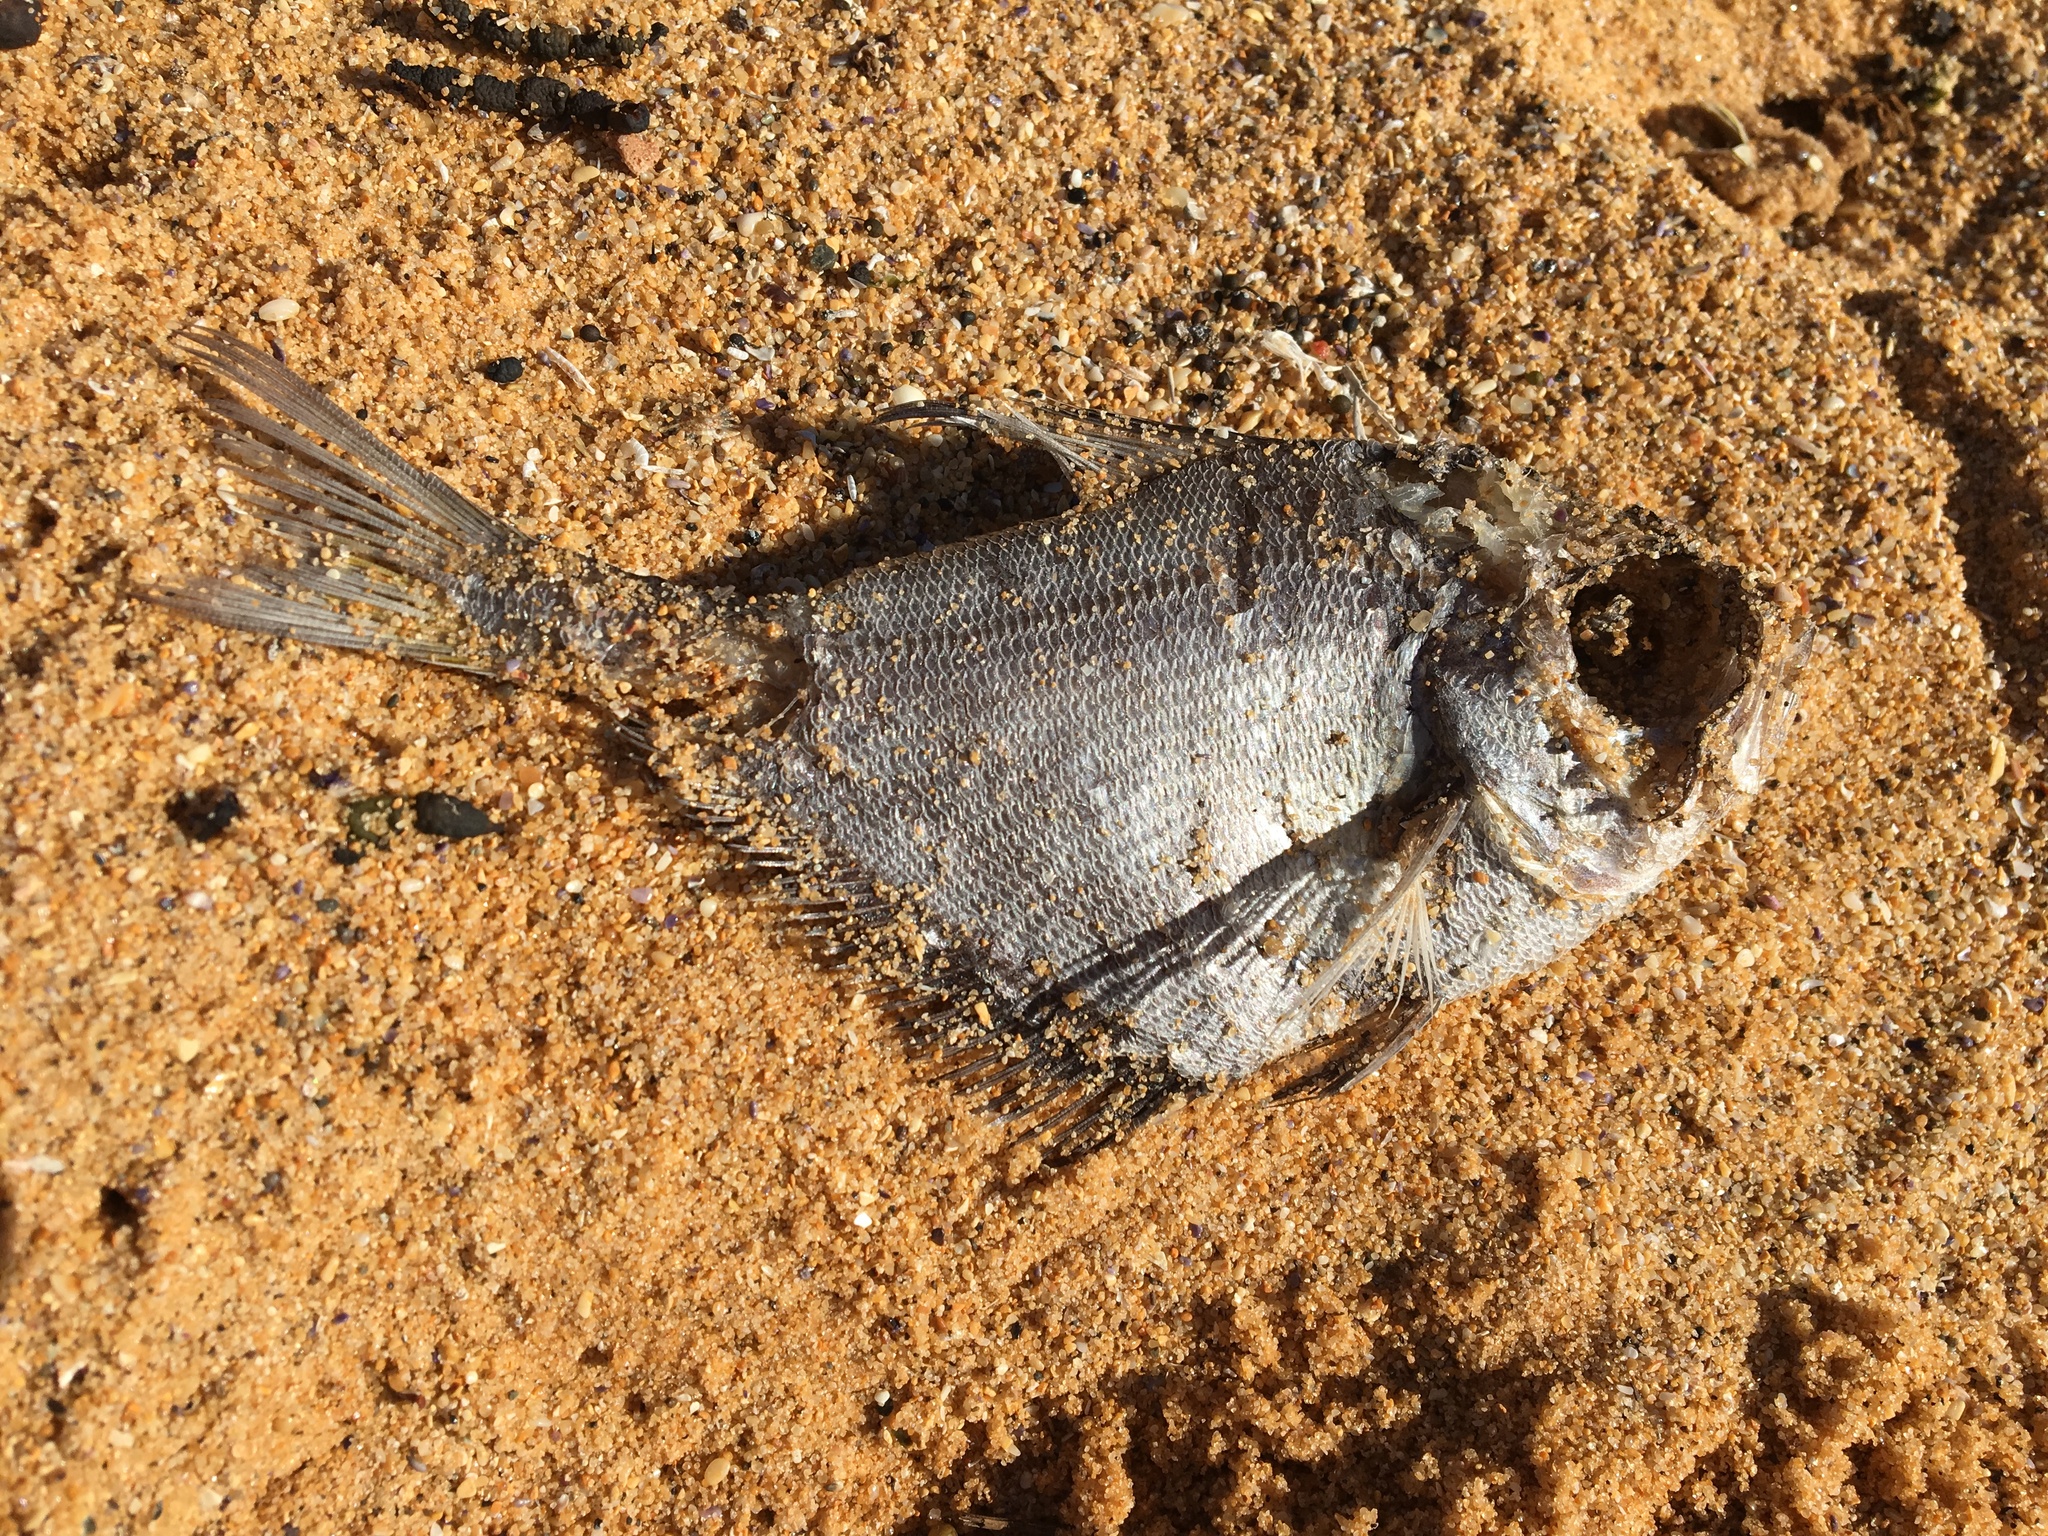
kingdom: Animalia
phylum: Chordata
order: Perciformes
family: Pempheridae
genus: Pempheris
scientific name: Pempheris compressa
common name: Bulleye
